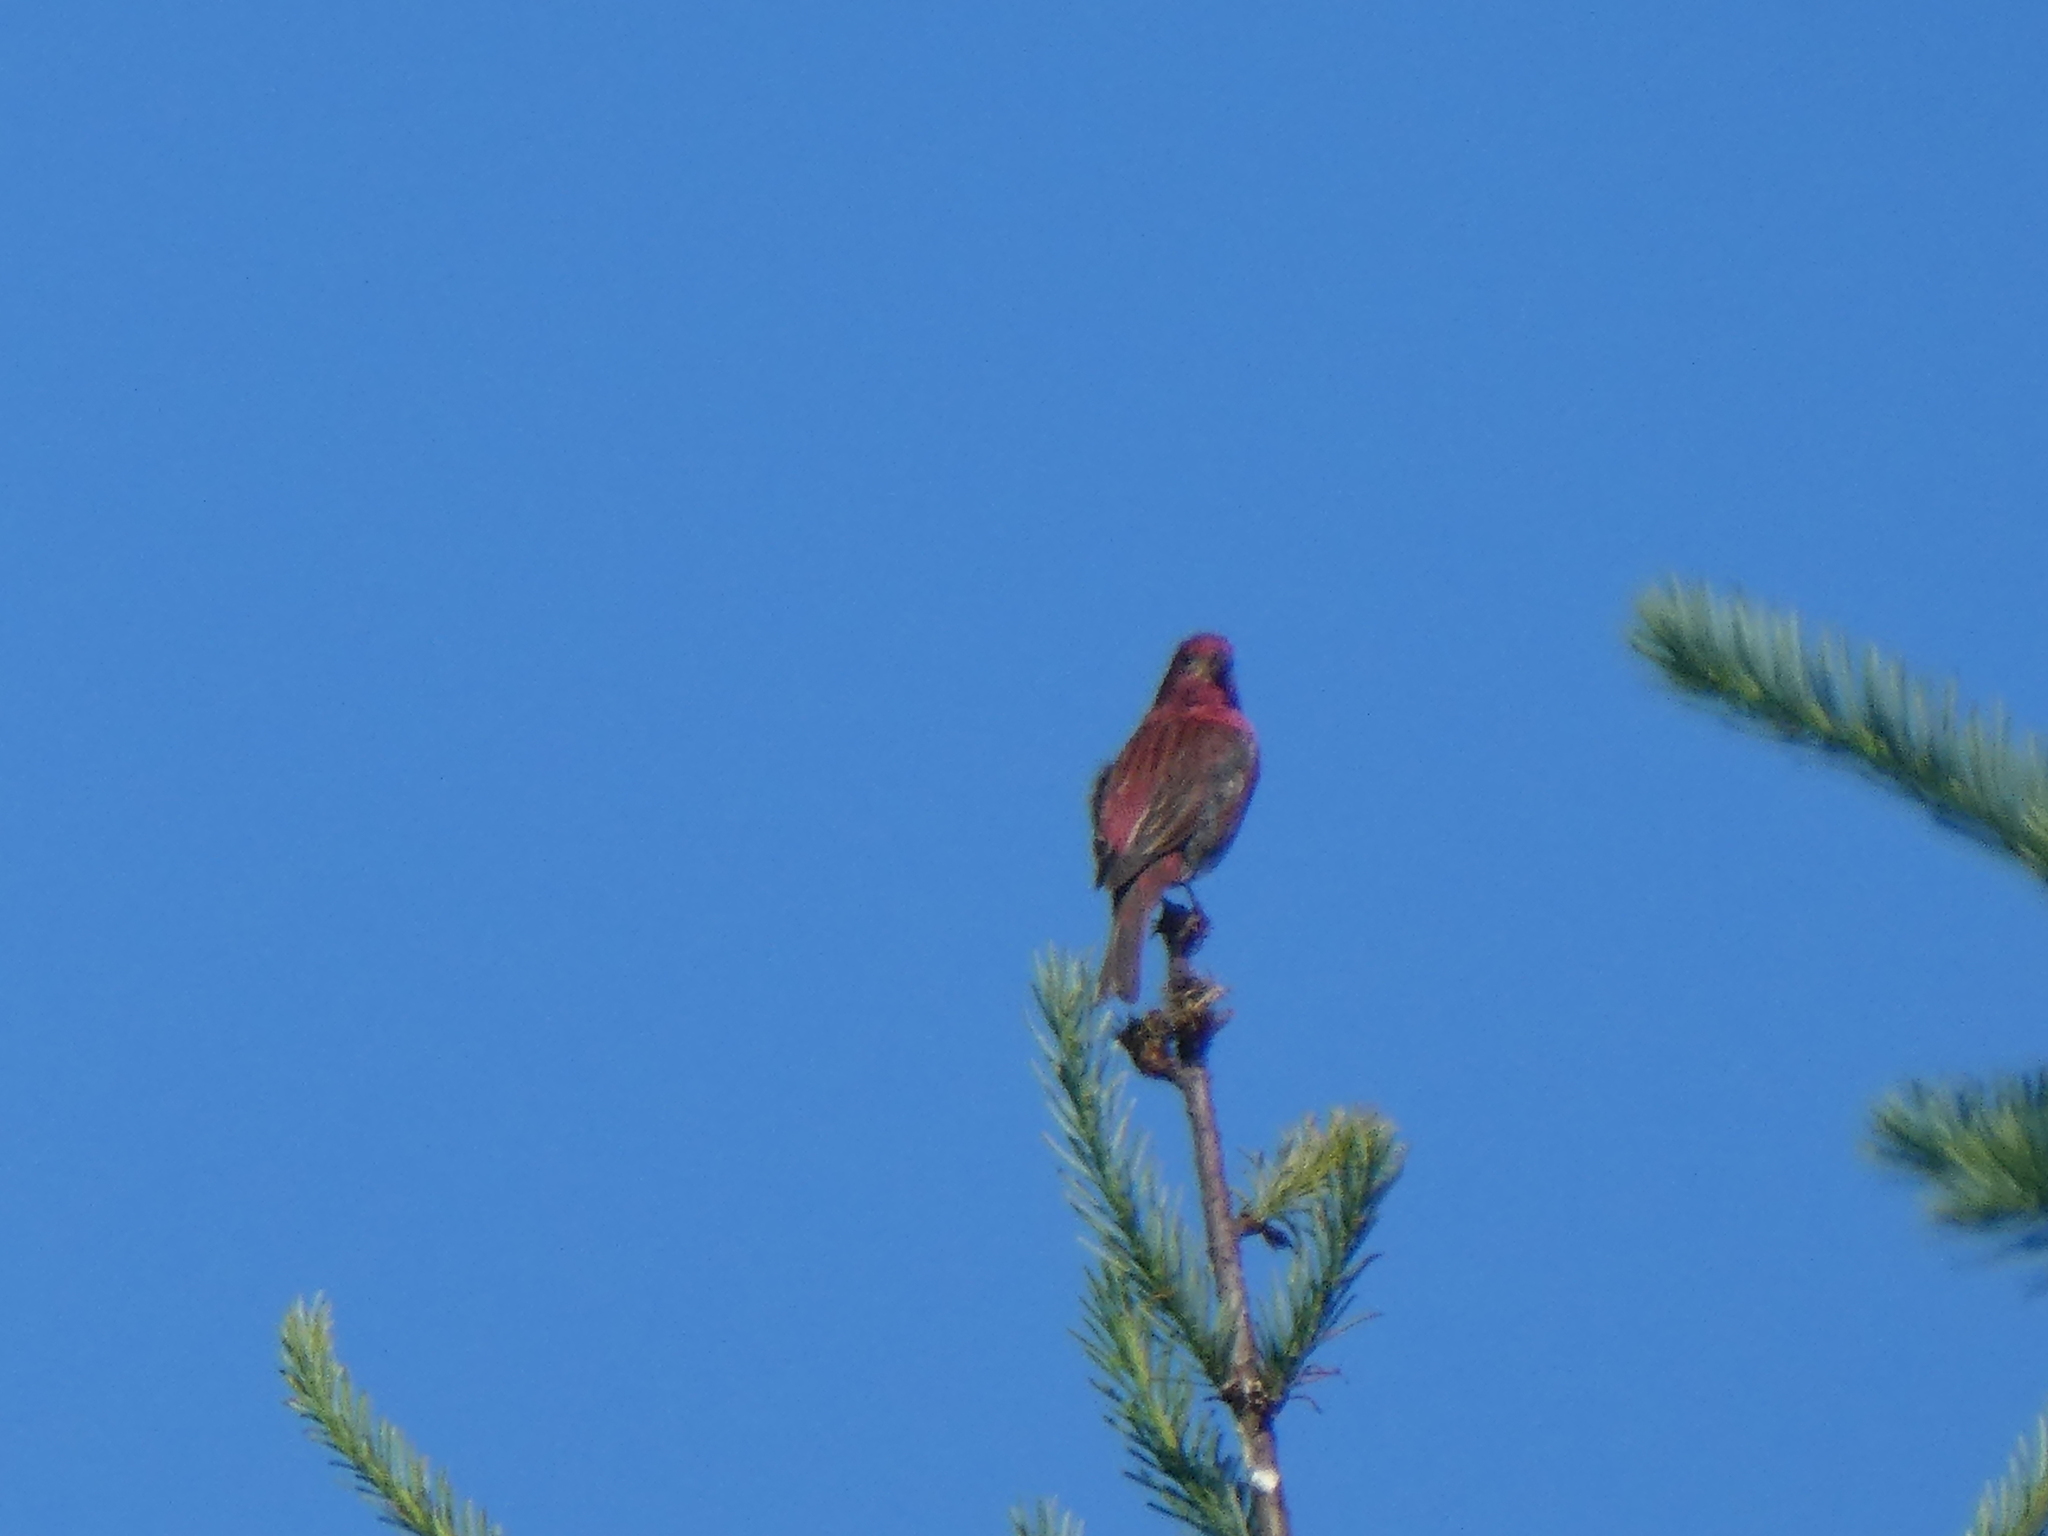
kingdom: Animalia
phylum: Chordata
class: Aves
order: Passeriformes
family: Fringillidae
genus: Haemorhous
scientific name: Haemorhous purpureus
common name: Purple finch
